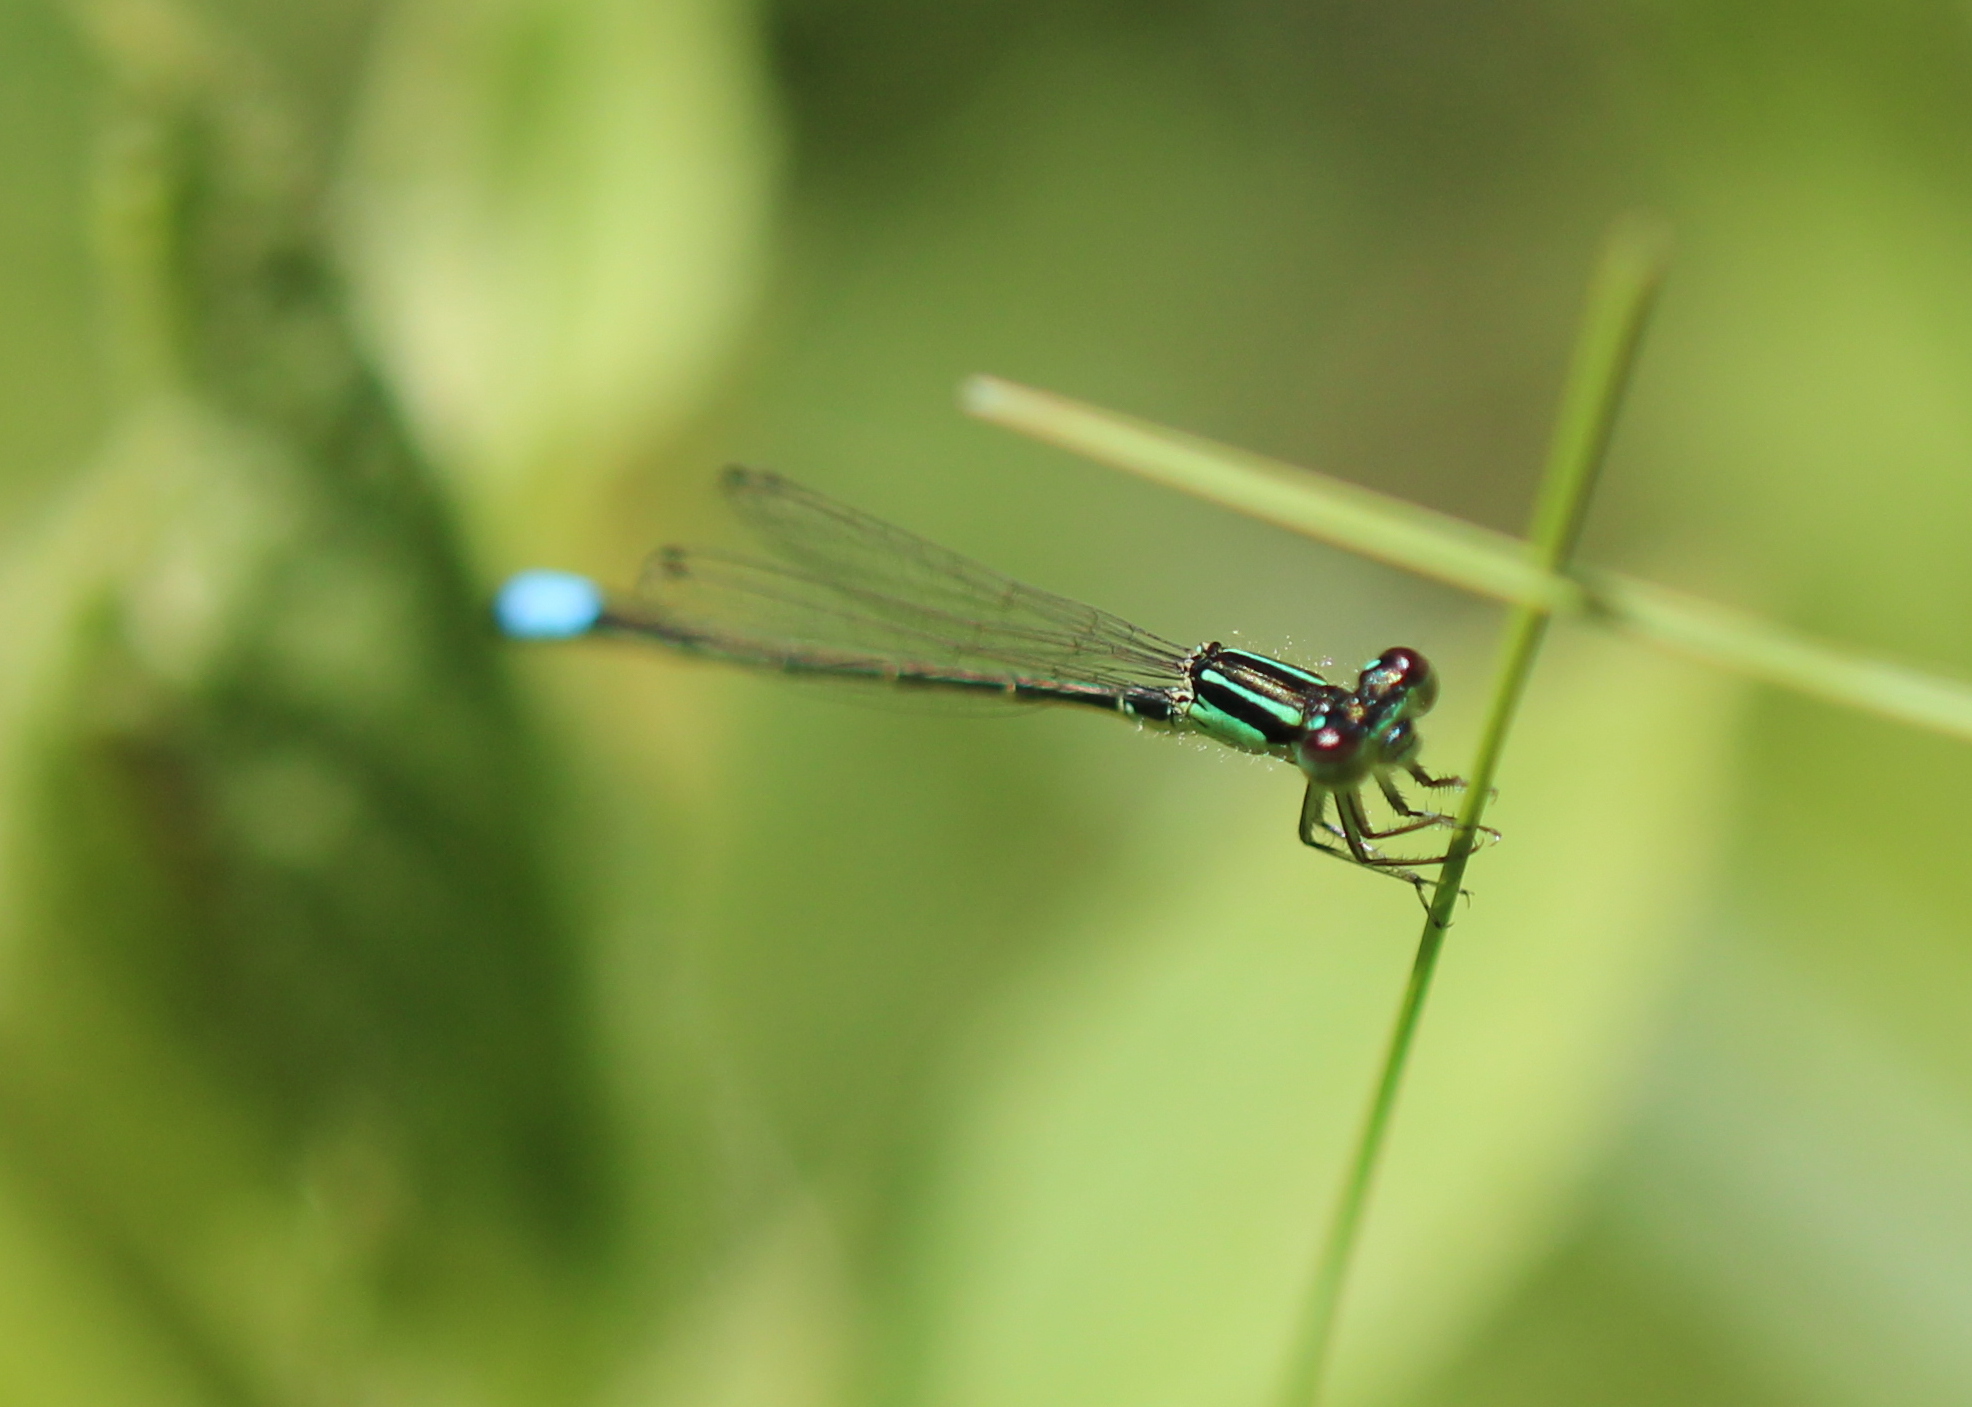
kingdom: Animalia
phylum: Arthropoda
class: Insecta
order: Odonata
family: Coenagrionidae
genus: Ischnura
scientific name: Ischnura verticalis
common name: Eastern forktail
